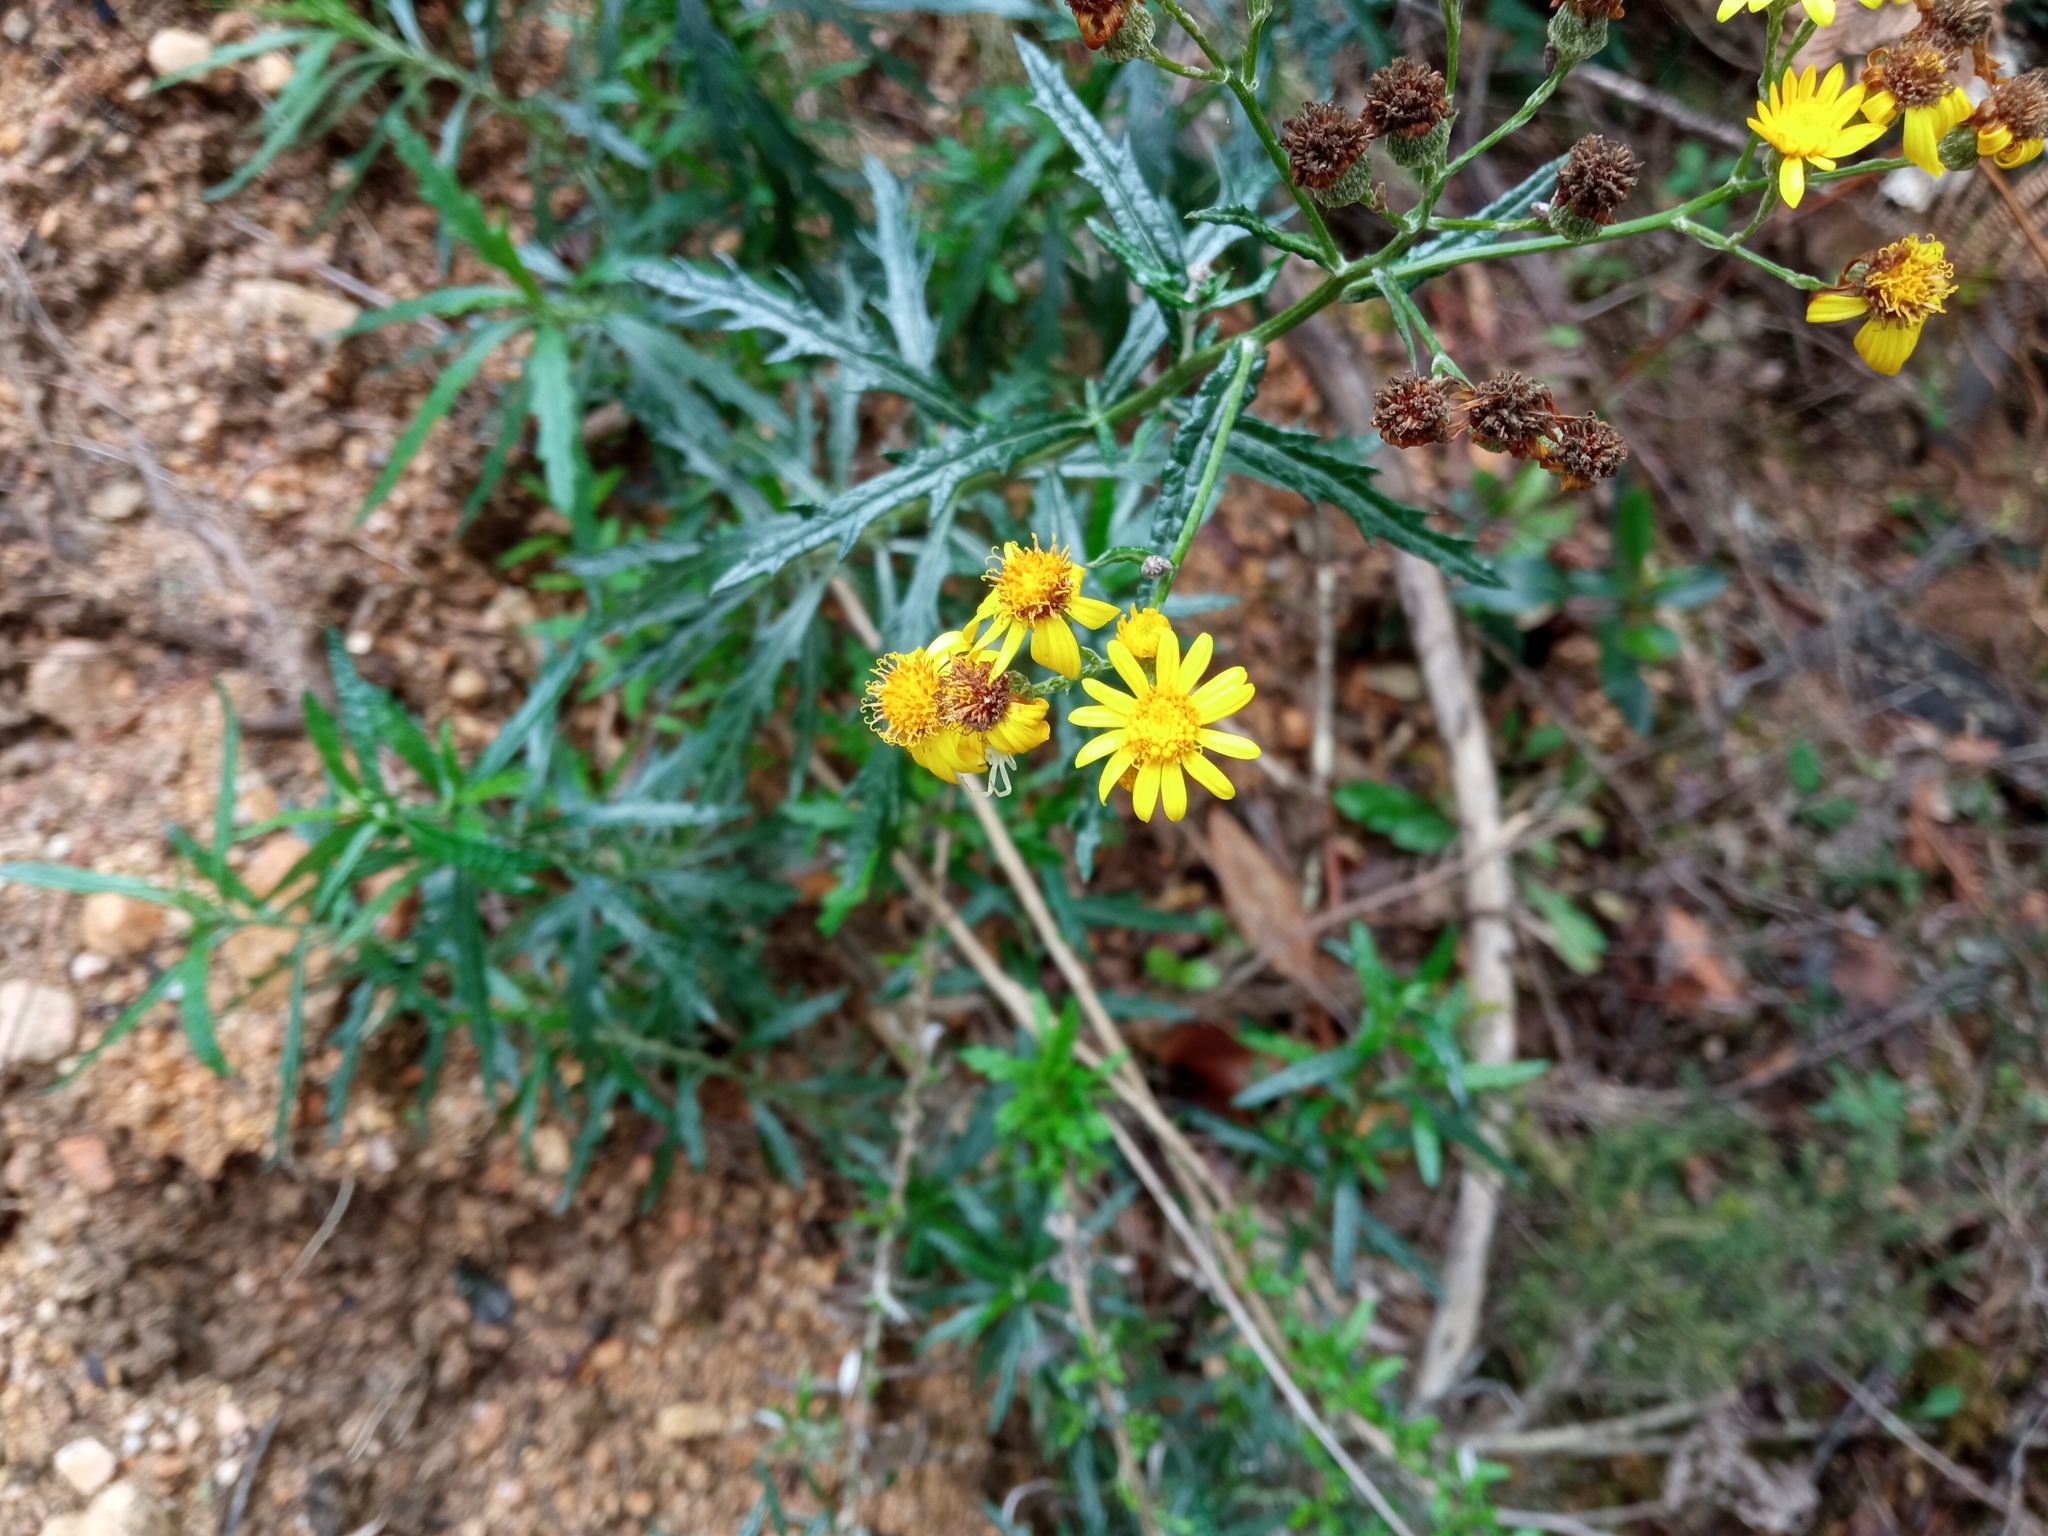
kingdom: Plantae
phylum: Tracheophyta
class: Magnoliopsida
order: Asterales
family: Asteraceae
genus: Senecio
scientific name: Senecio pterophorus
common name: Shoddy ragwort
